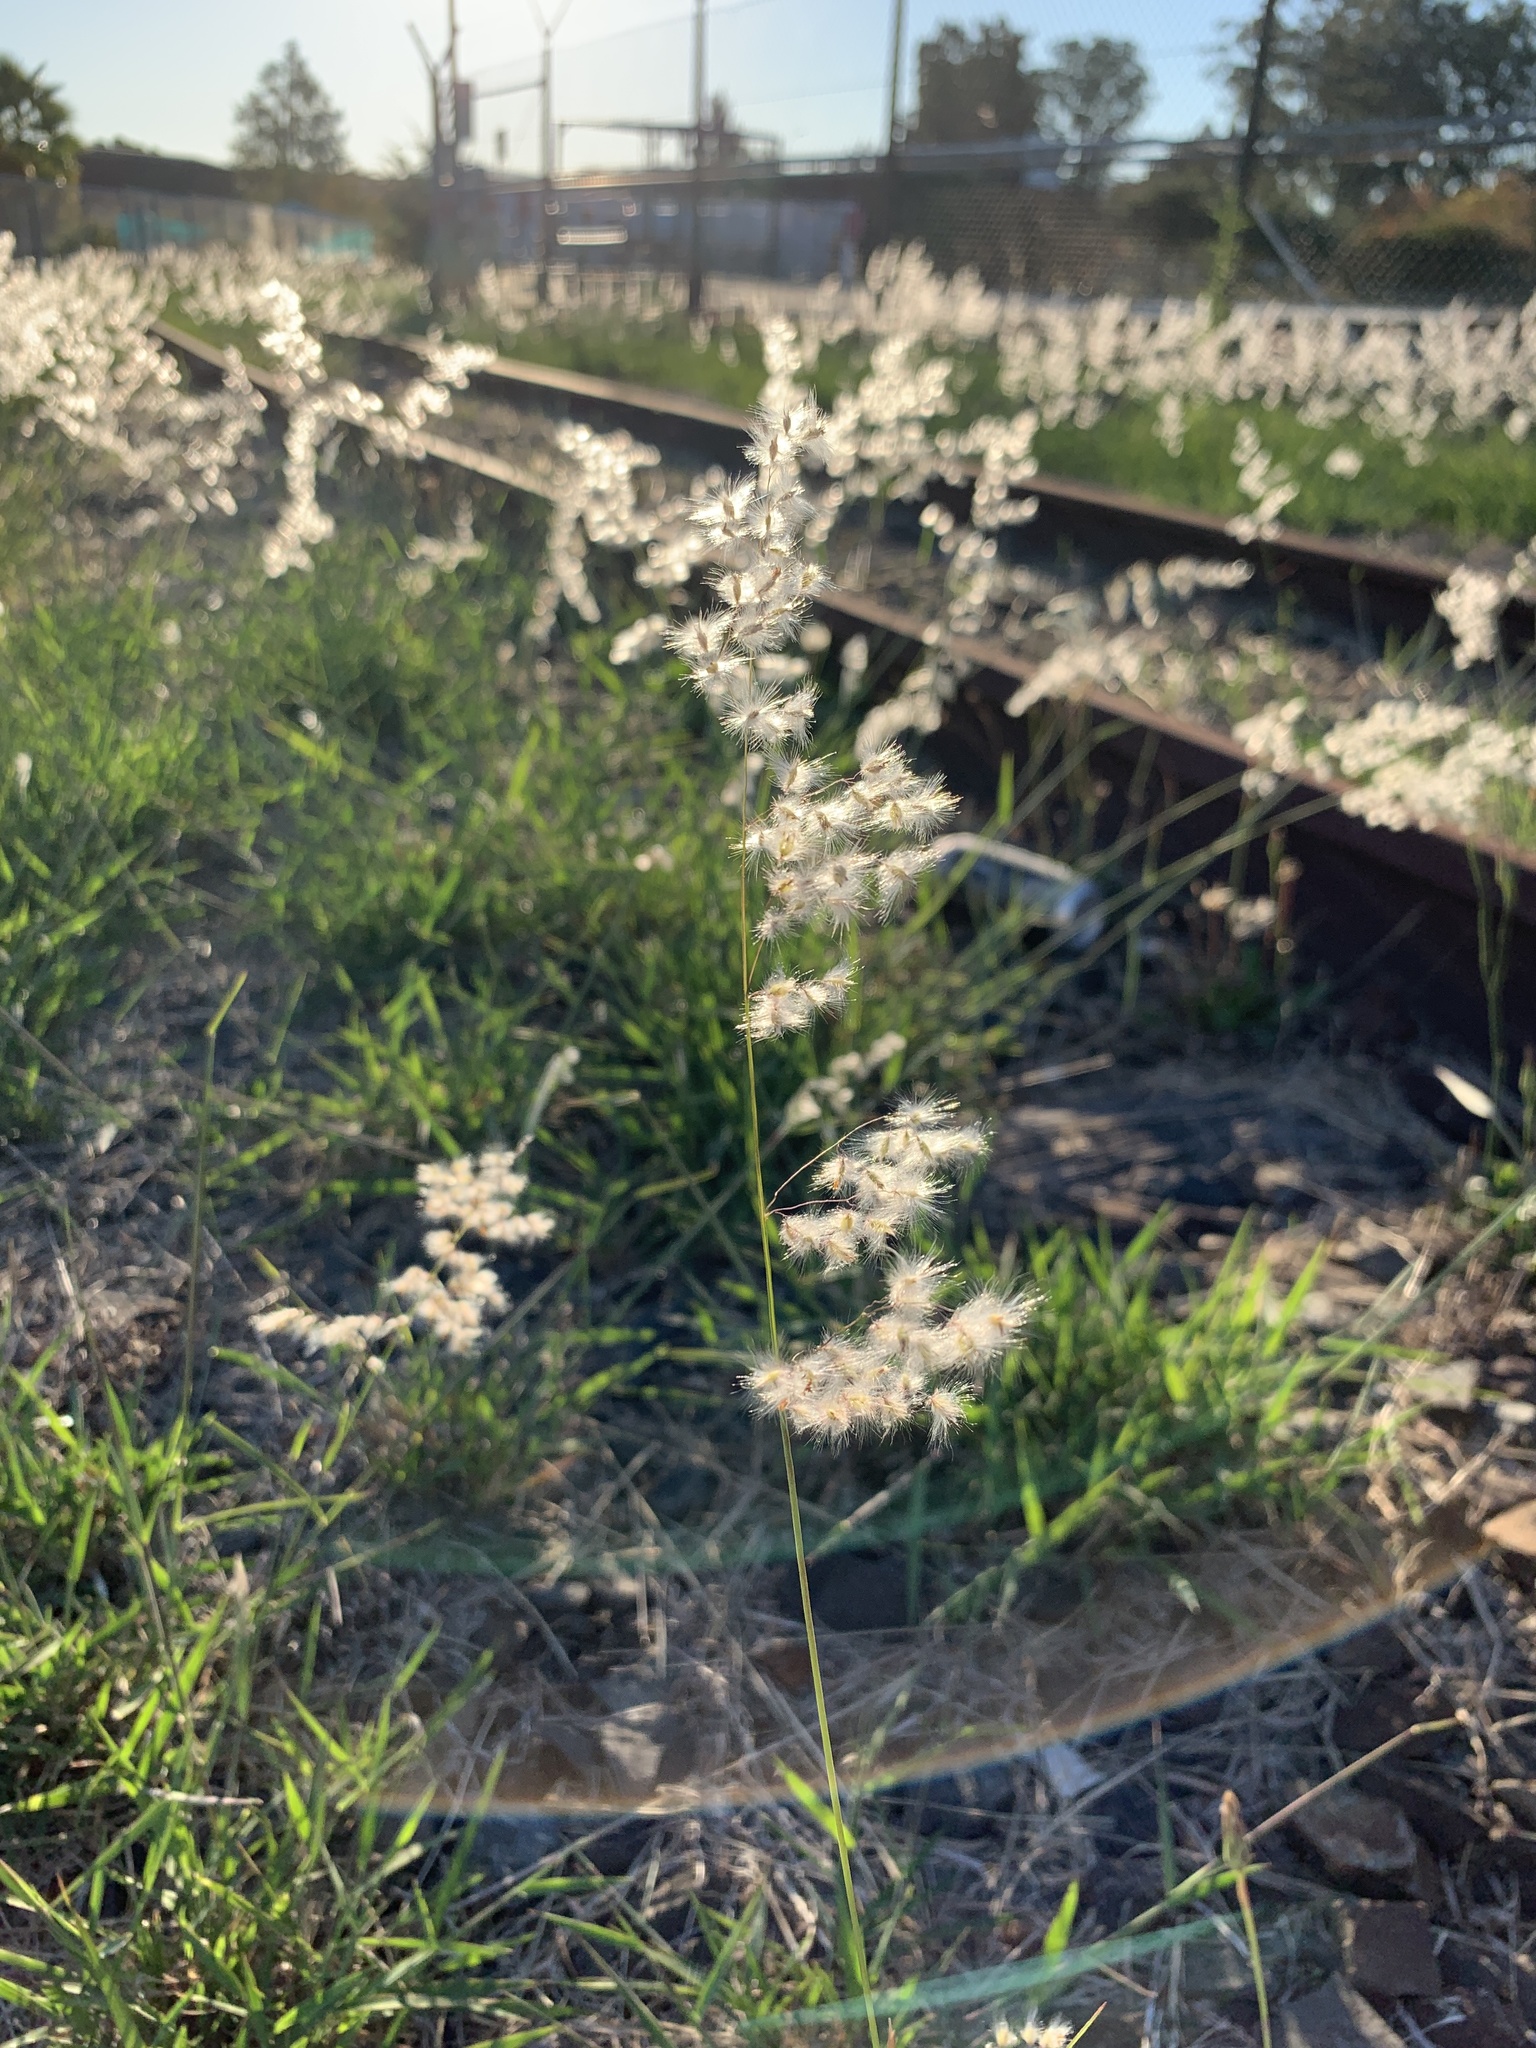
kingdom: Plantae
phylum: Tracheophyta
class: Liliopsida
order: Poales
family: Poaceae
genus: Melinis
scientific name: Melinis repens
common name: Rose natal grass
